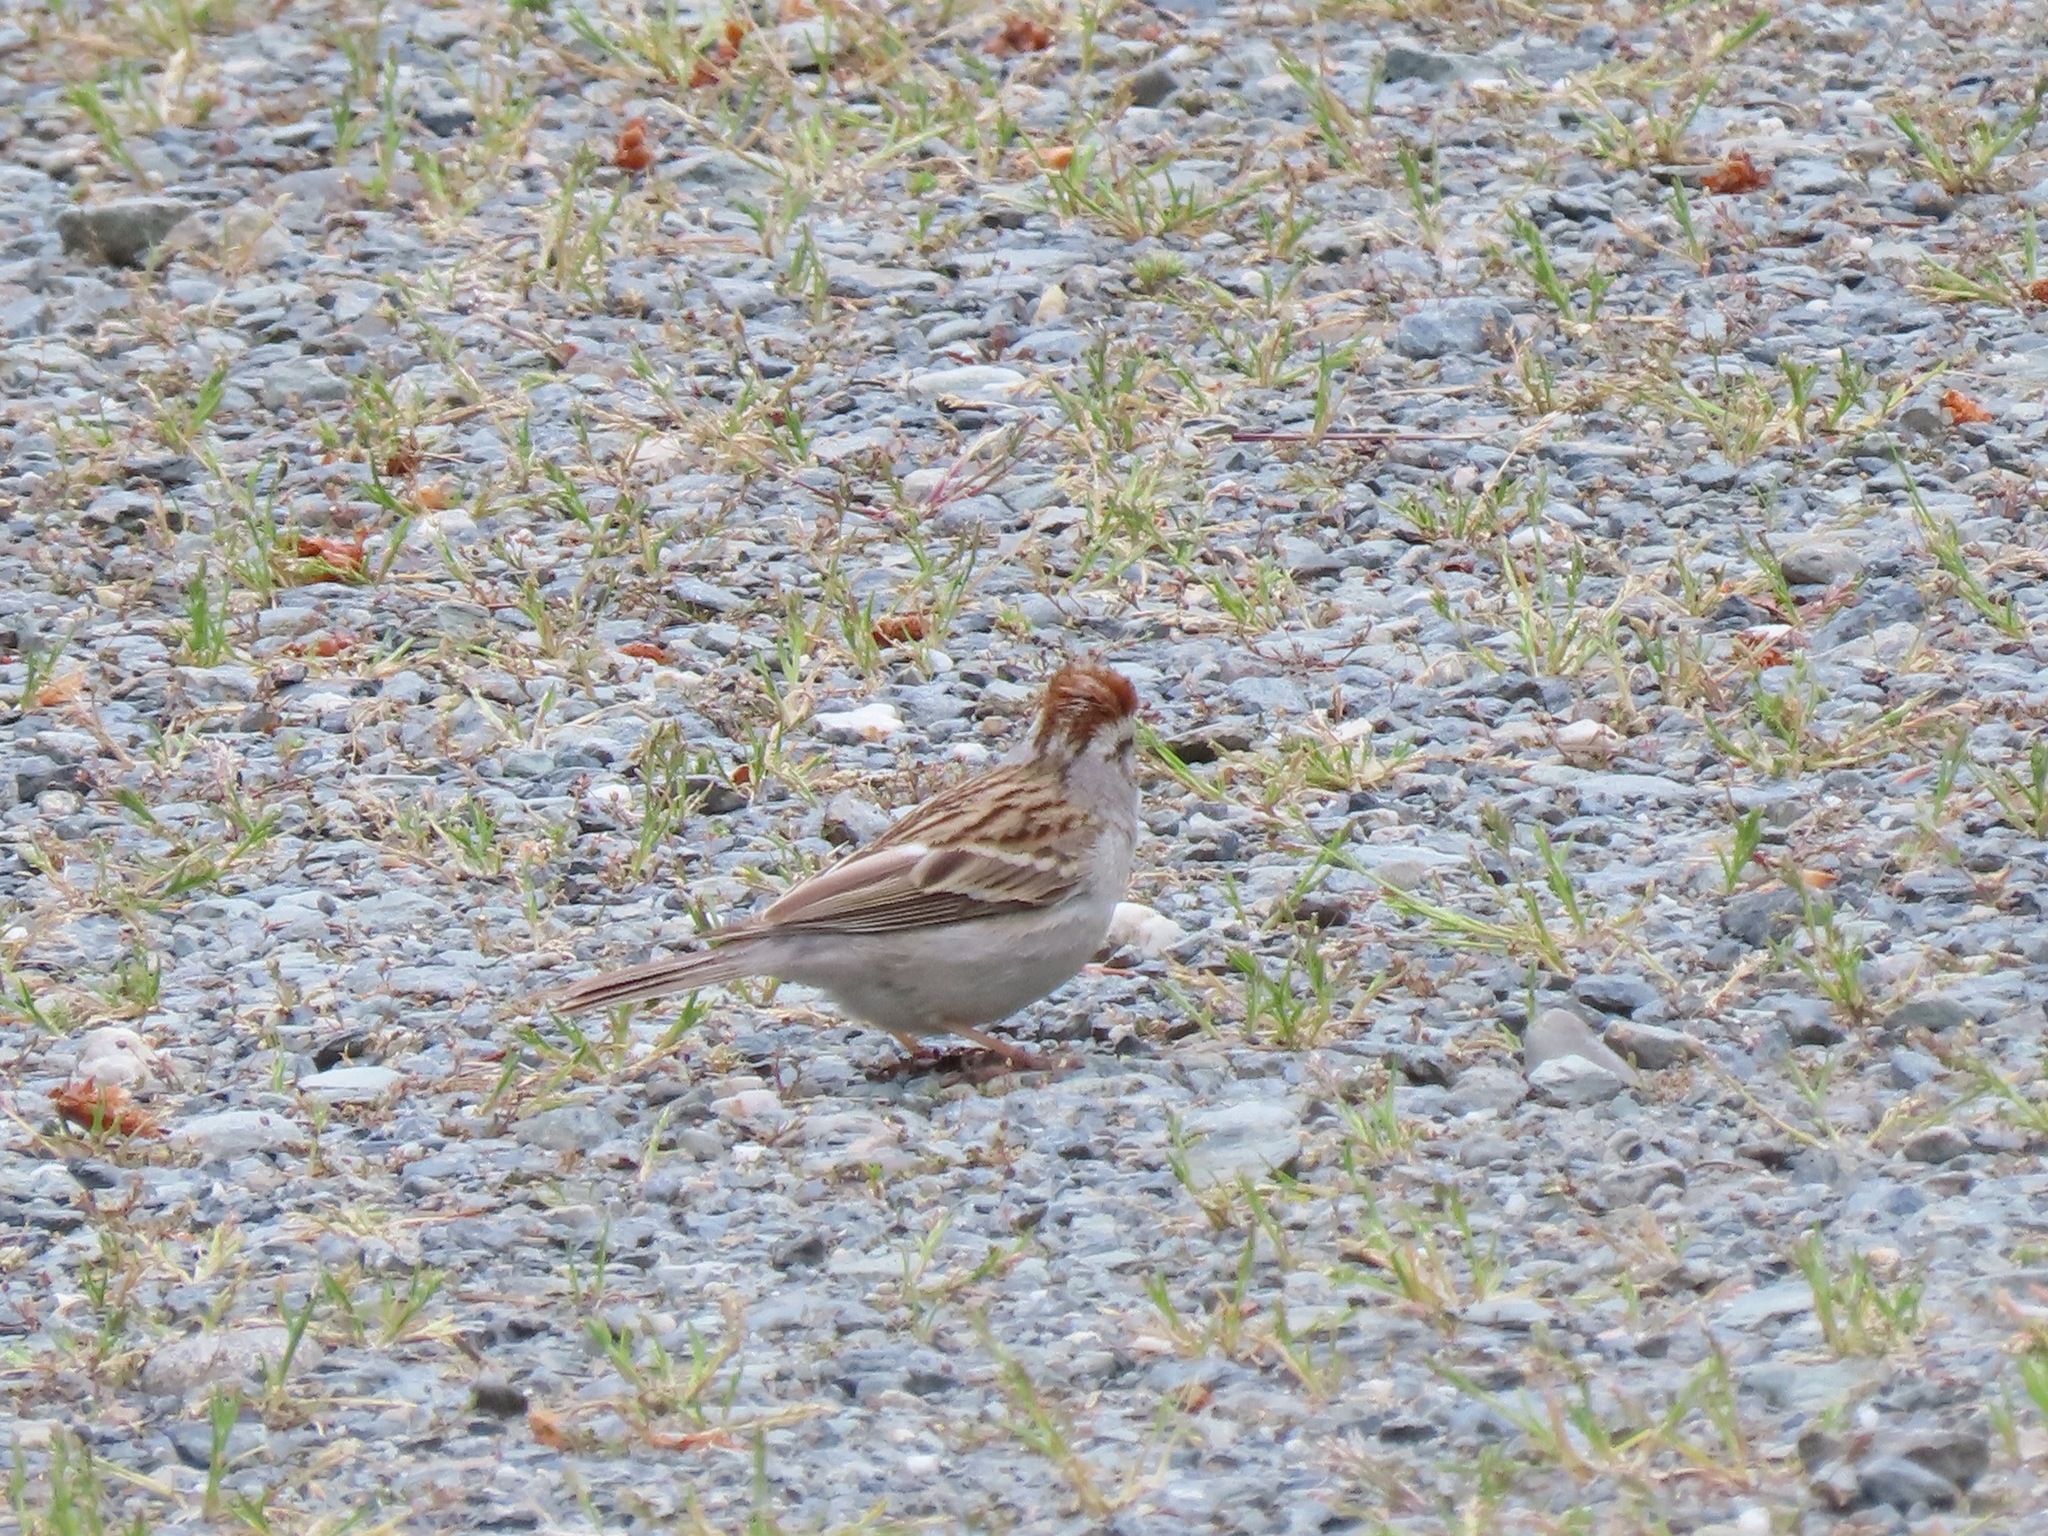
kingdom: Animalia
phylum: Chordata
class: Aves
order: Passeriformes
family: Passerellidae
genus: Spizella
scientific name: Spizella passerina
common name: Chipping sparrow
